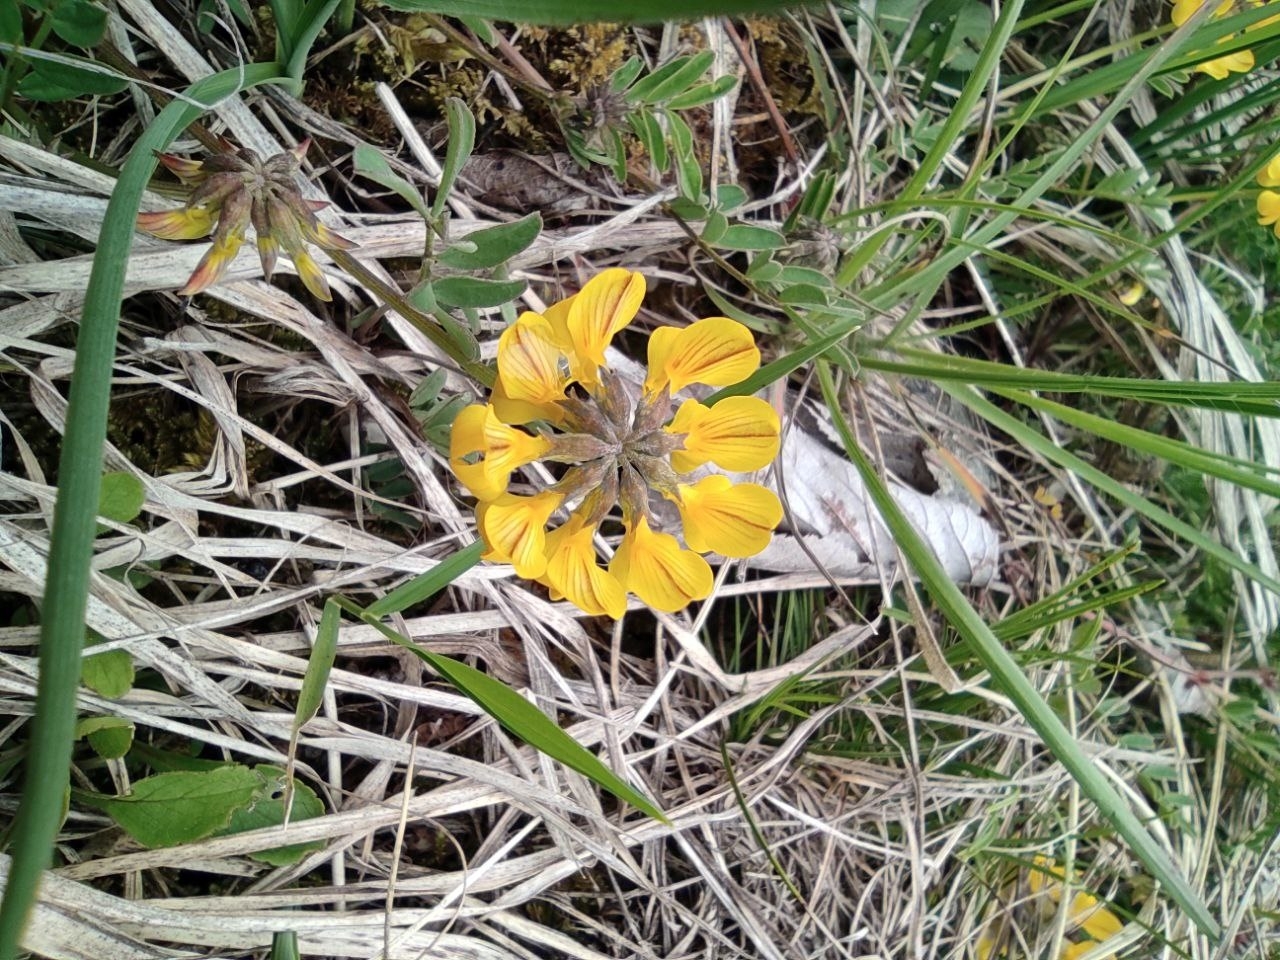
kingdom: Plantae
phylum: Tracheophyta
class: Magnoliopsida
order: Fabales
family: Fabaceae
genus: Hippocrepis
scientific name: Hippocrepis comosa
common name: Horseshoe vetch
